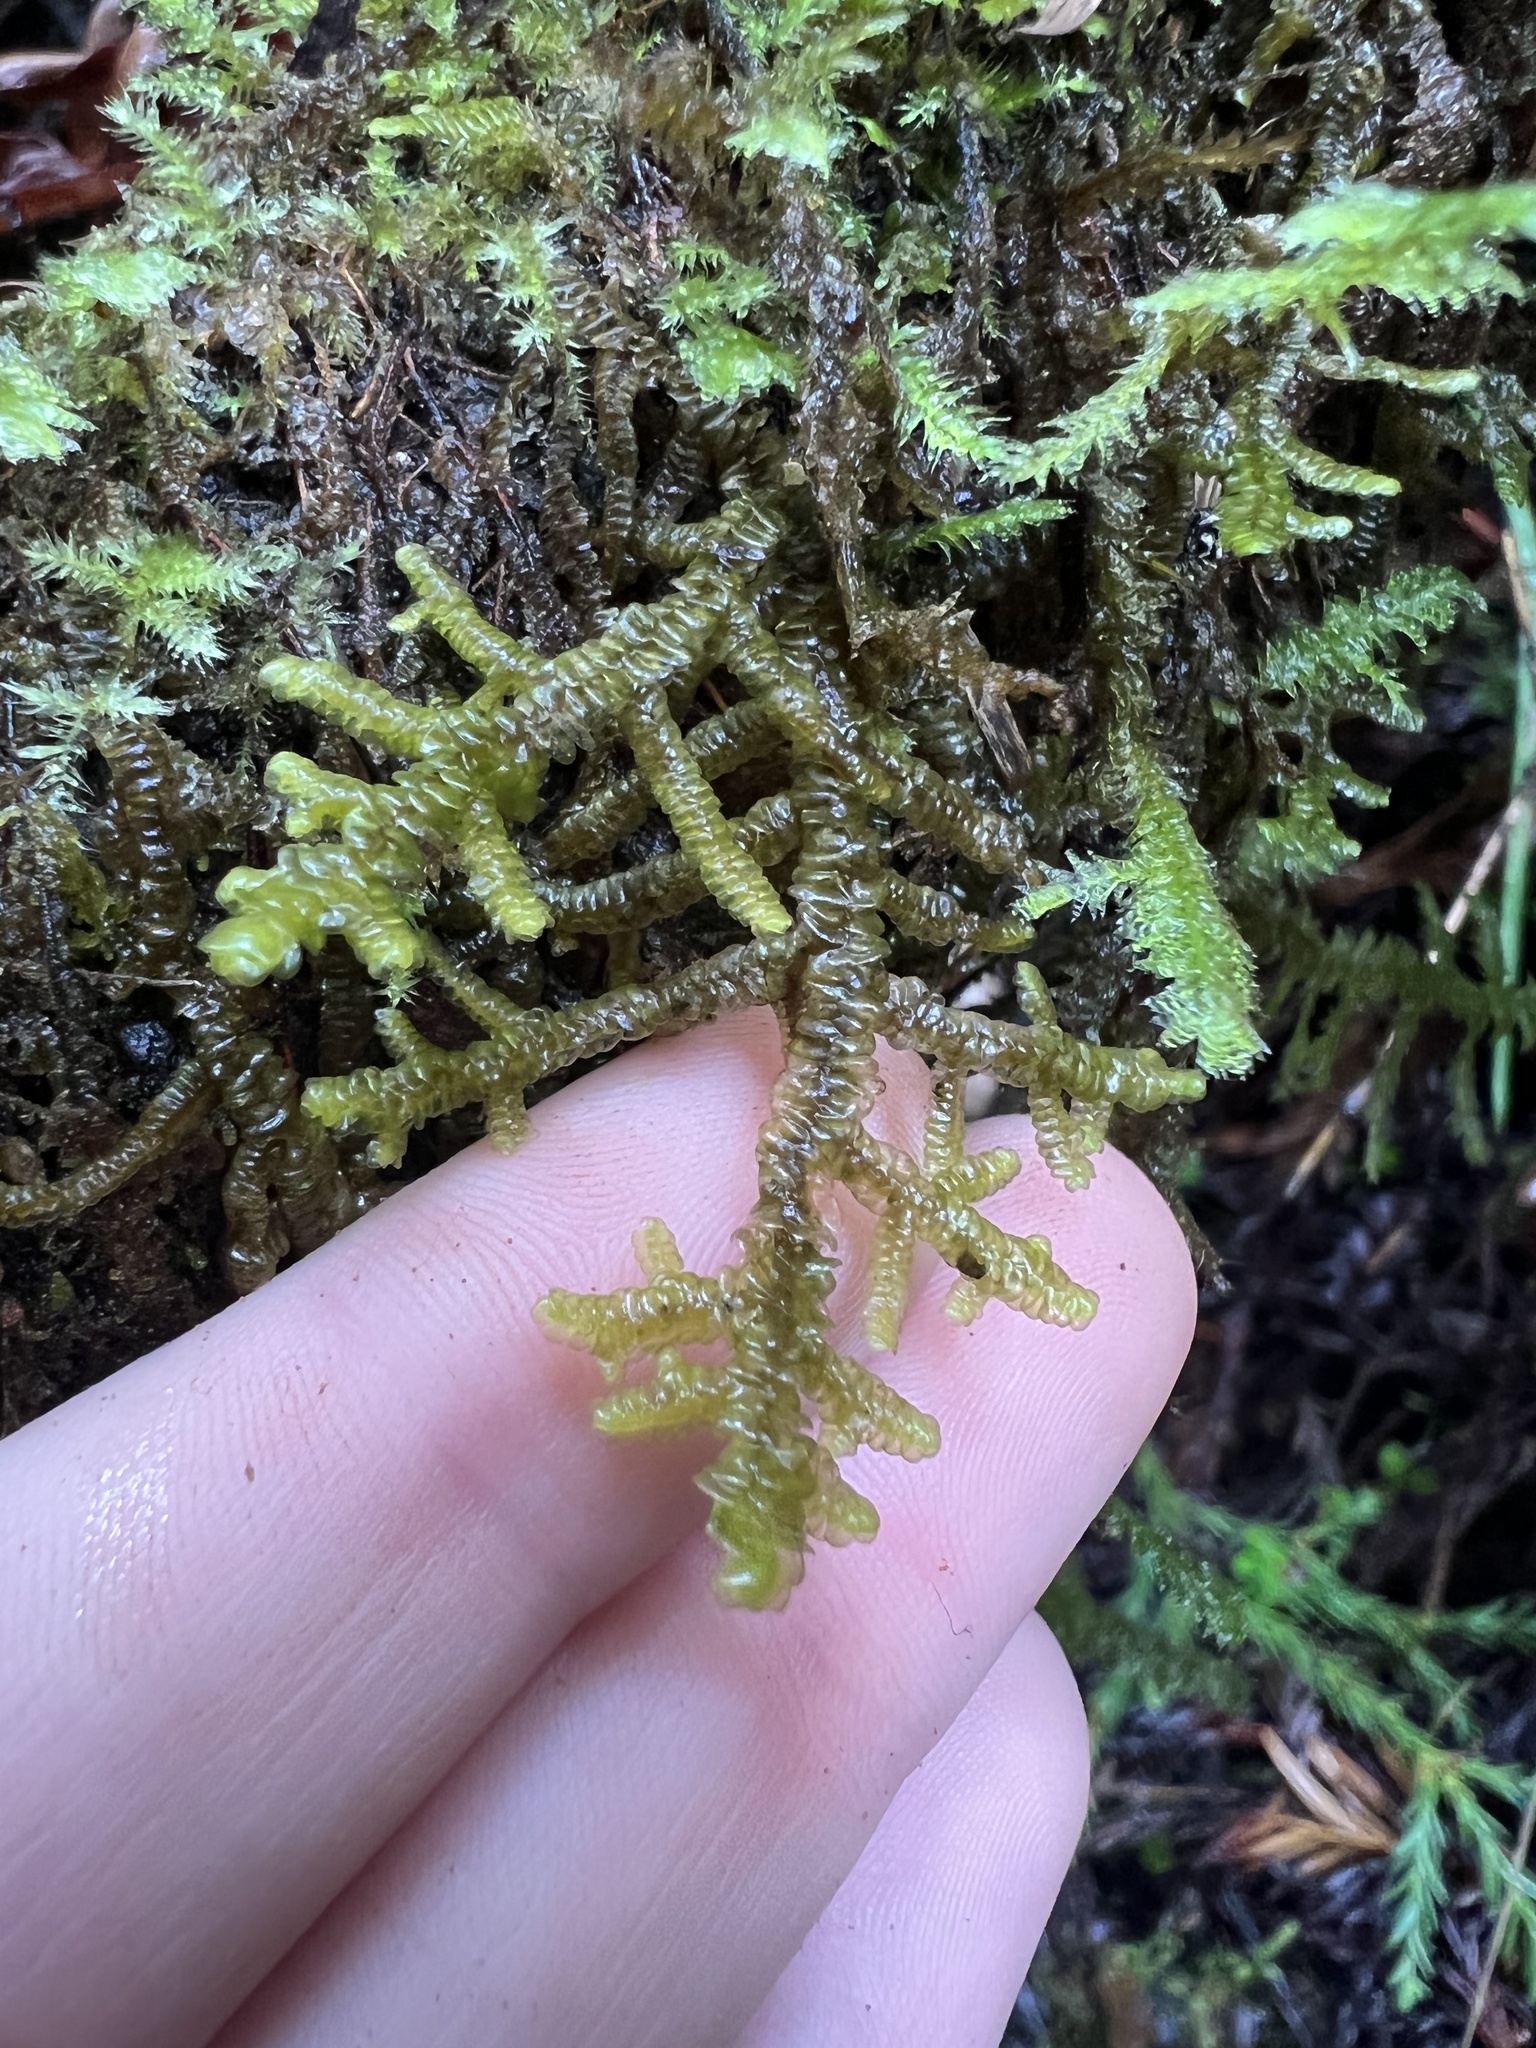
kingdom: Plantae
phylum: Marchantiophyta
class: Jungermanniopsida
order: Porellales
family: Porellaceae
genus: Porella
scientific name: Porella navicularis
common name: Tree ruffle liverwort
